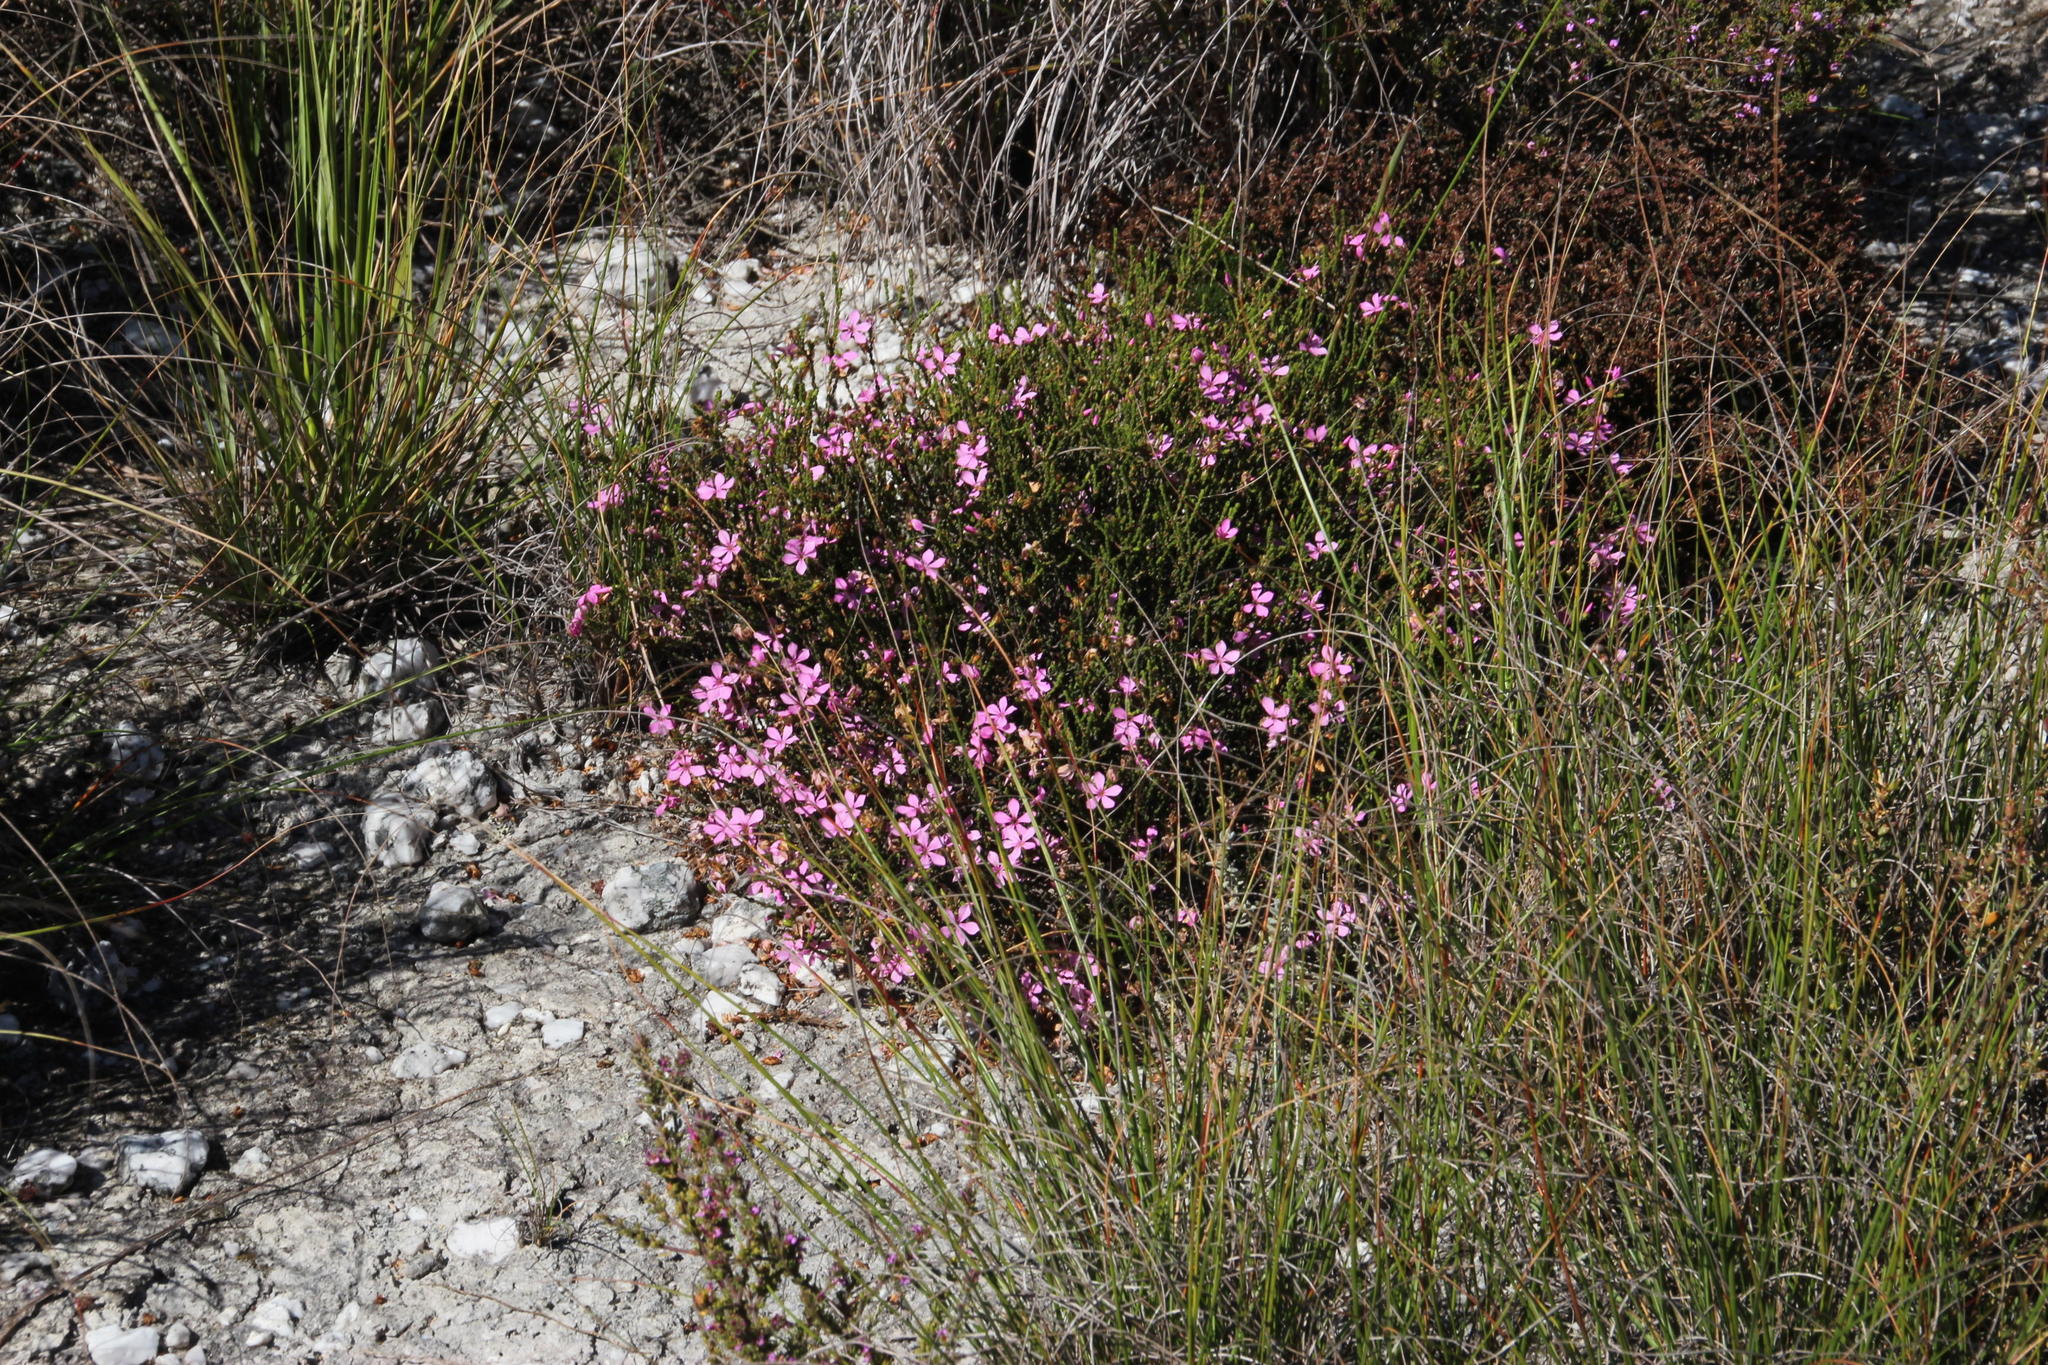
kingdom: Plantae
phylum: Tracheophyta
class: Magnoliopsida
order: Sapindales
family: Rutaceae
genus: Acmadenia
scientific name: Acmadenia macropetala
